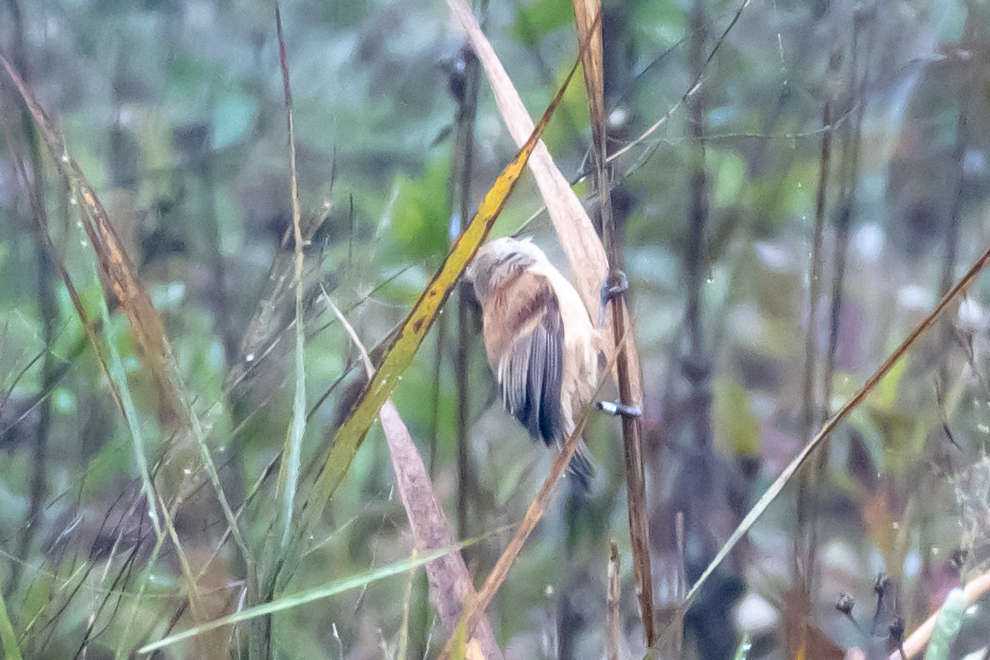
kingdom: Animalia
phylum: Chordata
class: Aves
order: Passeriformes
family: Remizidae
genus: Remiz
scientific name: Remiz pendulinus
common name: Eurasian penduline tit
